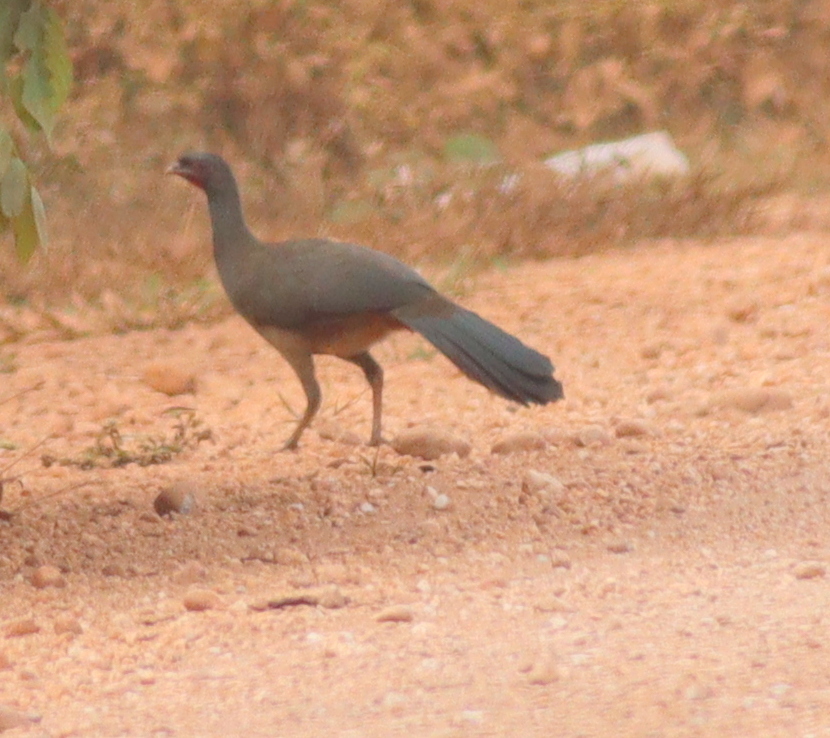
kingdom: Animalia
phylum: Chordata
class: Aves
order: Galliformes
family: Cracidae
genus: Ortalis
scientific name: Ortalis canicollis
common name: Chaco chachalaca
